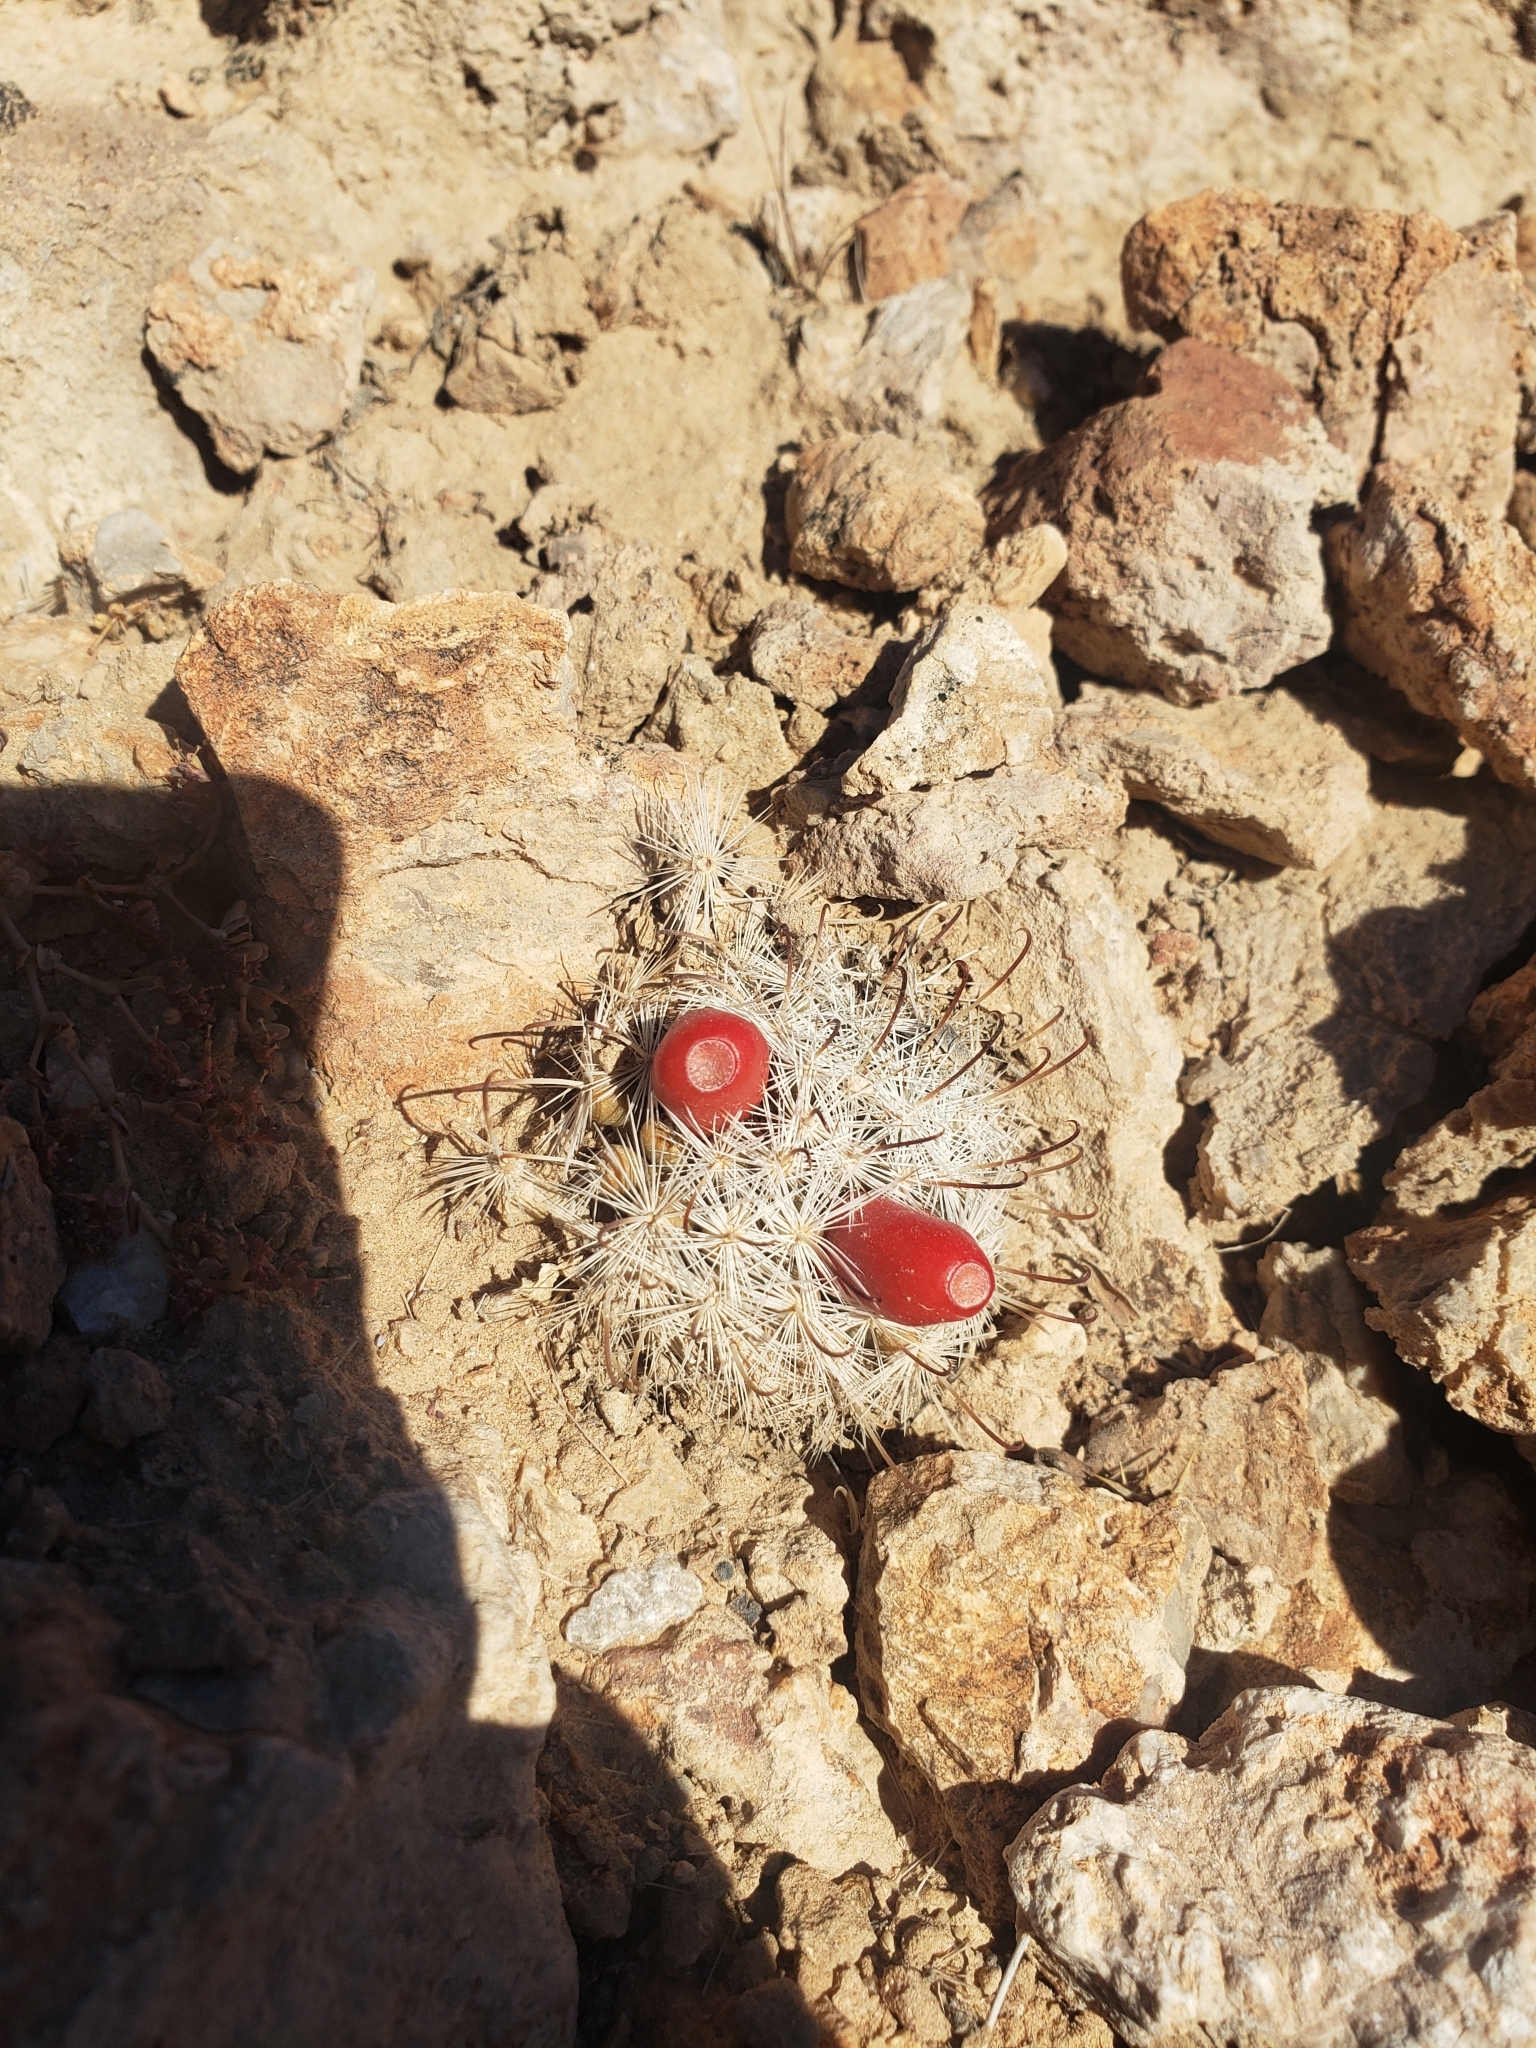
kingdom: Plantae
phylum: Tracheophyta
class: Magnoliopsida
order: Caryophyllales
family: Cactaceae
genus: Cochemiea
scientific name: Cochemiea tetrancistra
